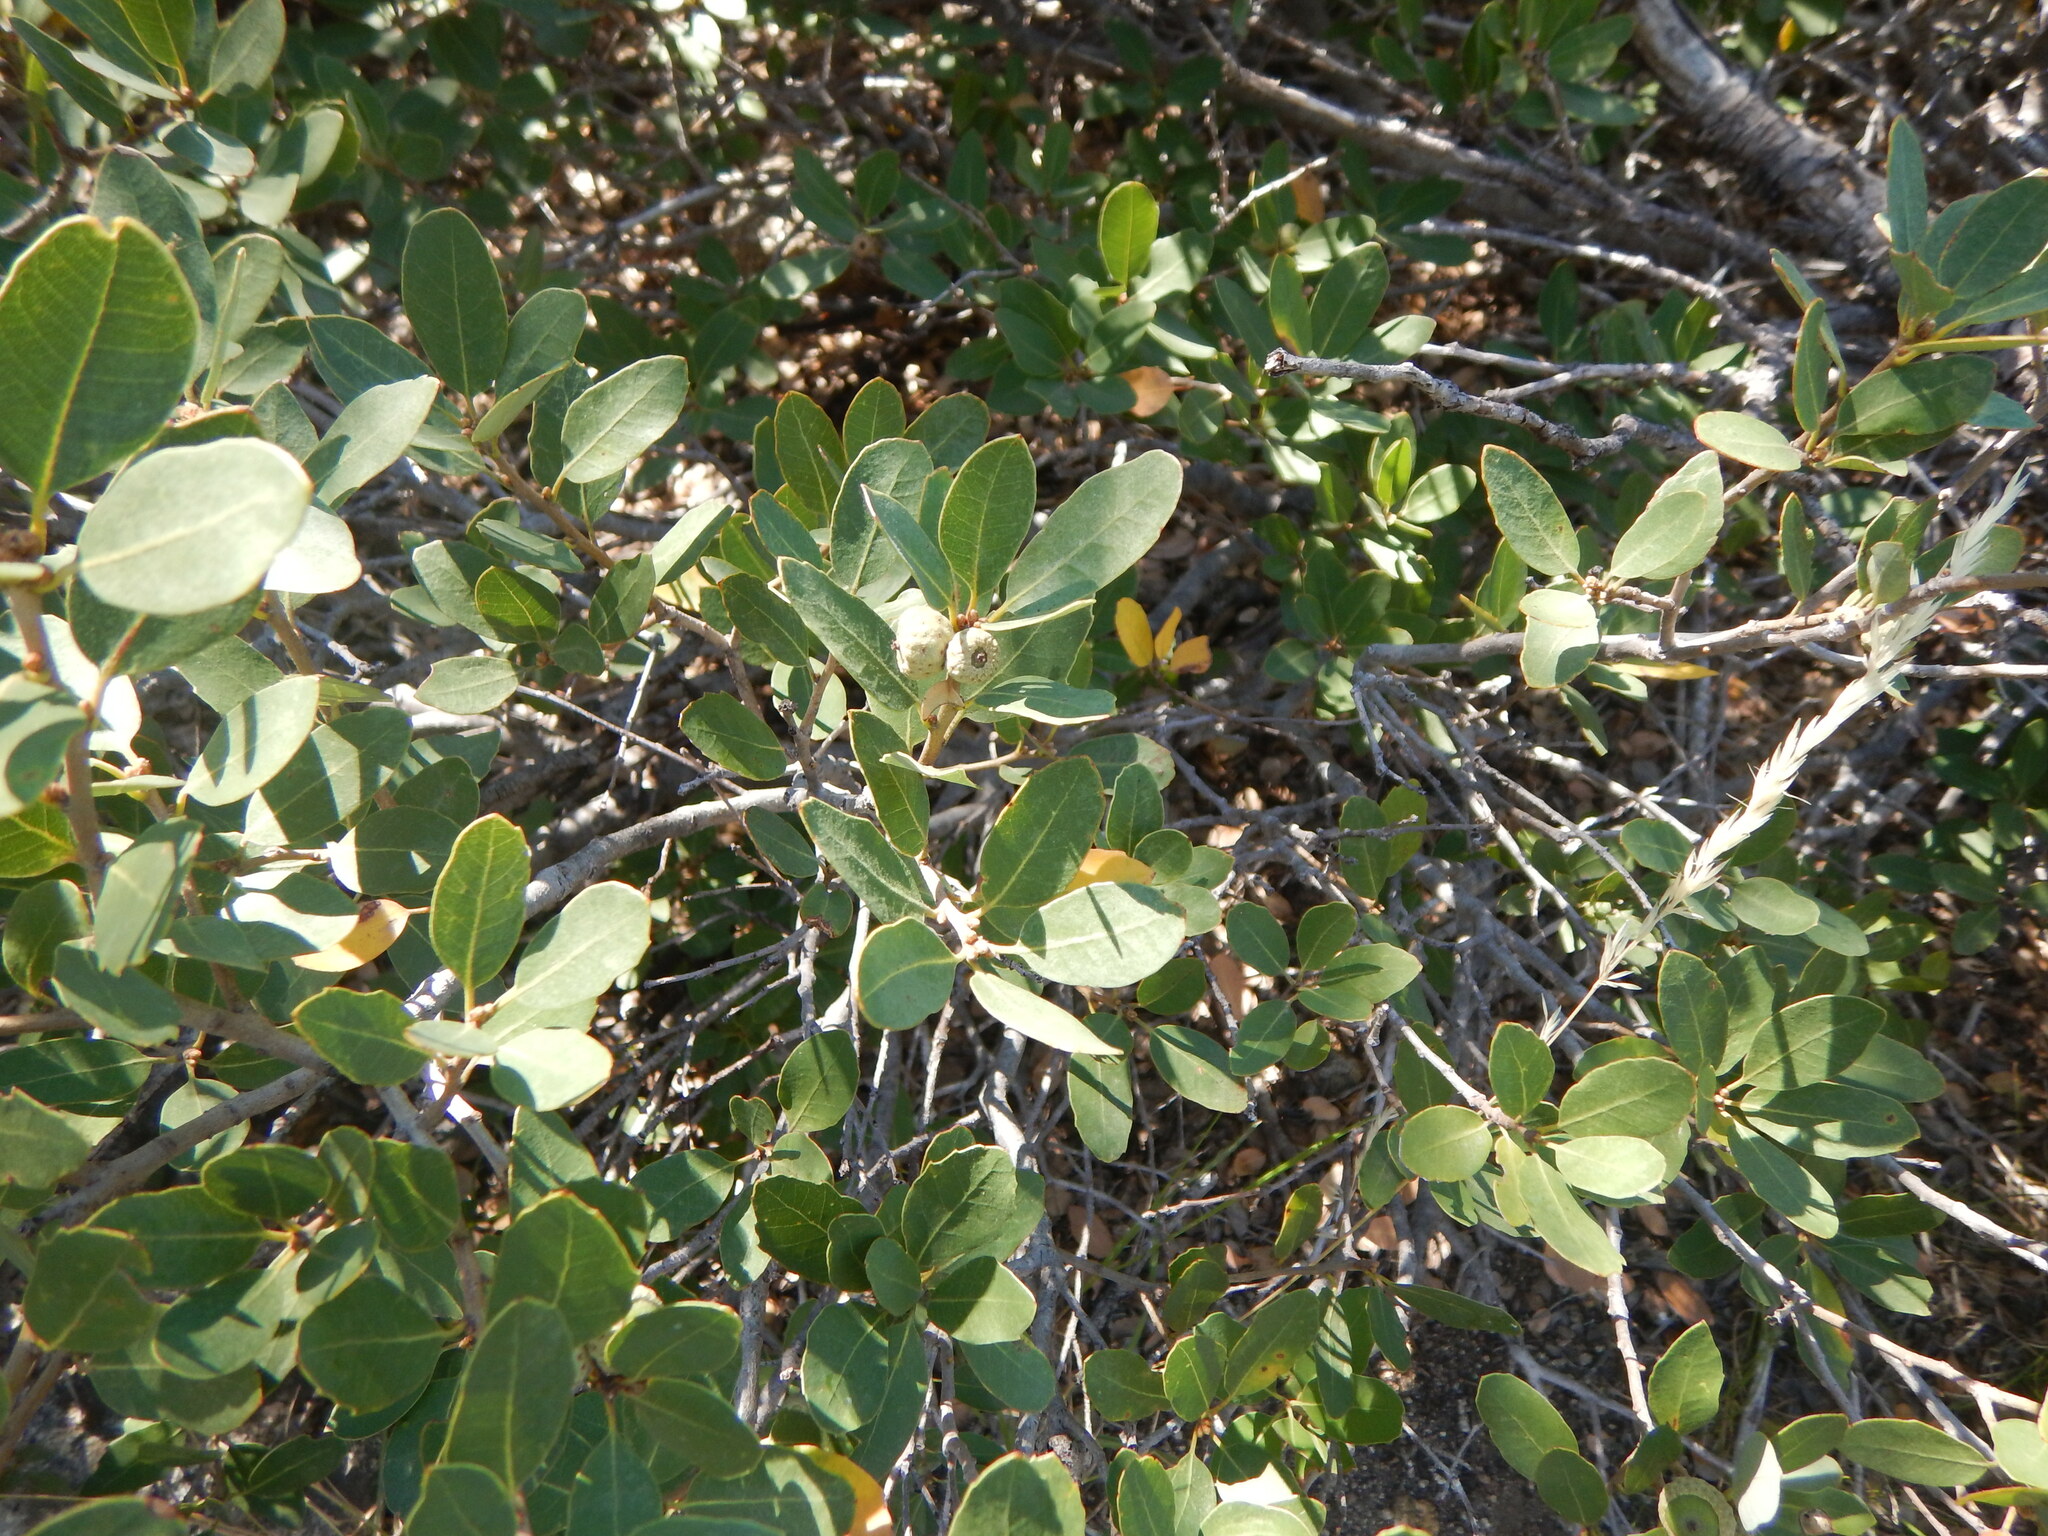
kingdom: Plantae
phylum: Tracheophyta
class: Magnoliopsida
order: Fagales
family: Fagaceae
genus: Quercus
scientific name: Quercus vacciniifolia
